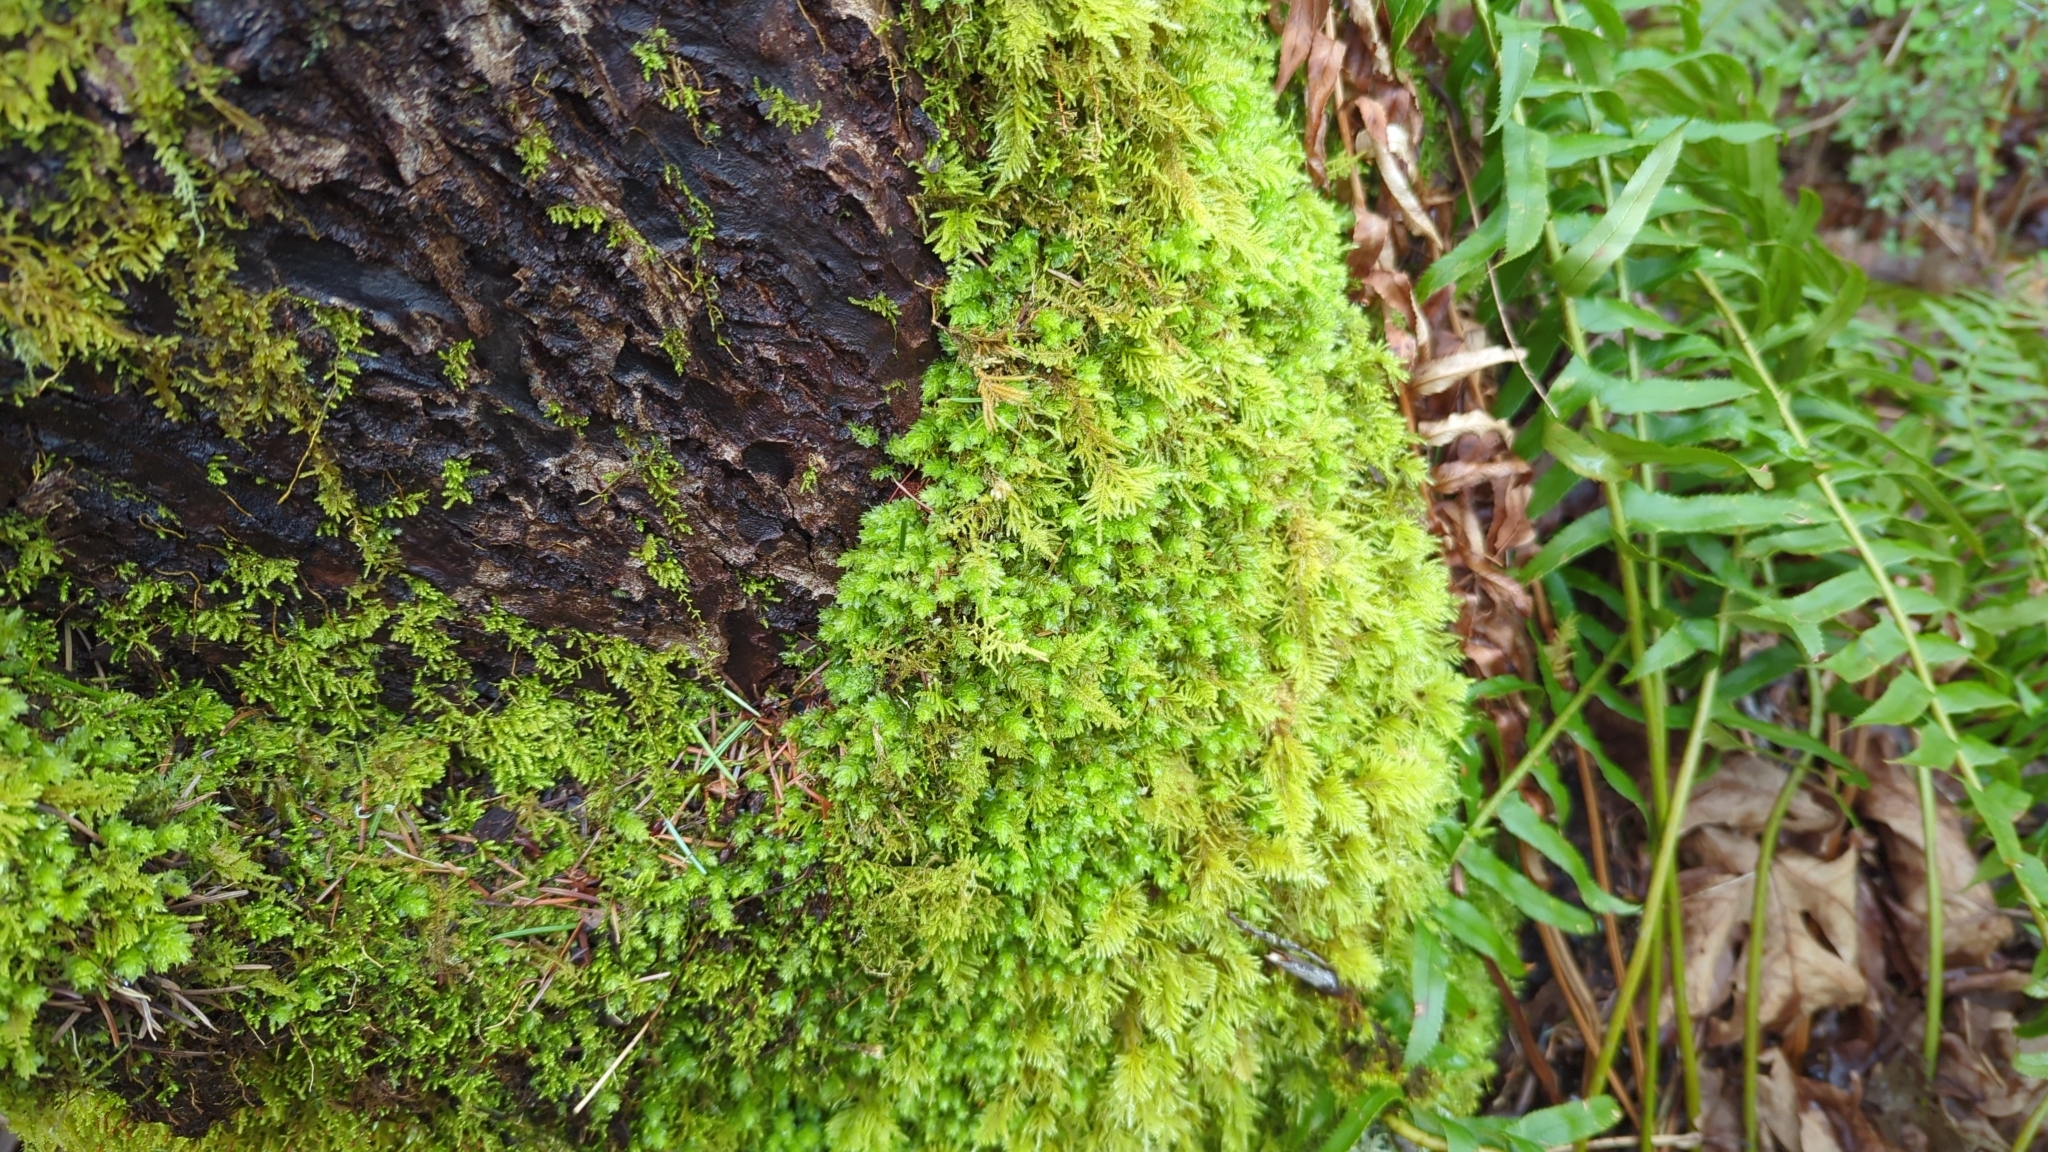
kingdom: Plantae
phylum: Bryophyta
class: Bryopsida
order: Bryales
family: Mniaceae
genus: Plagiomnium
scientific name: Plagiomnium venustum
